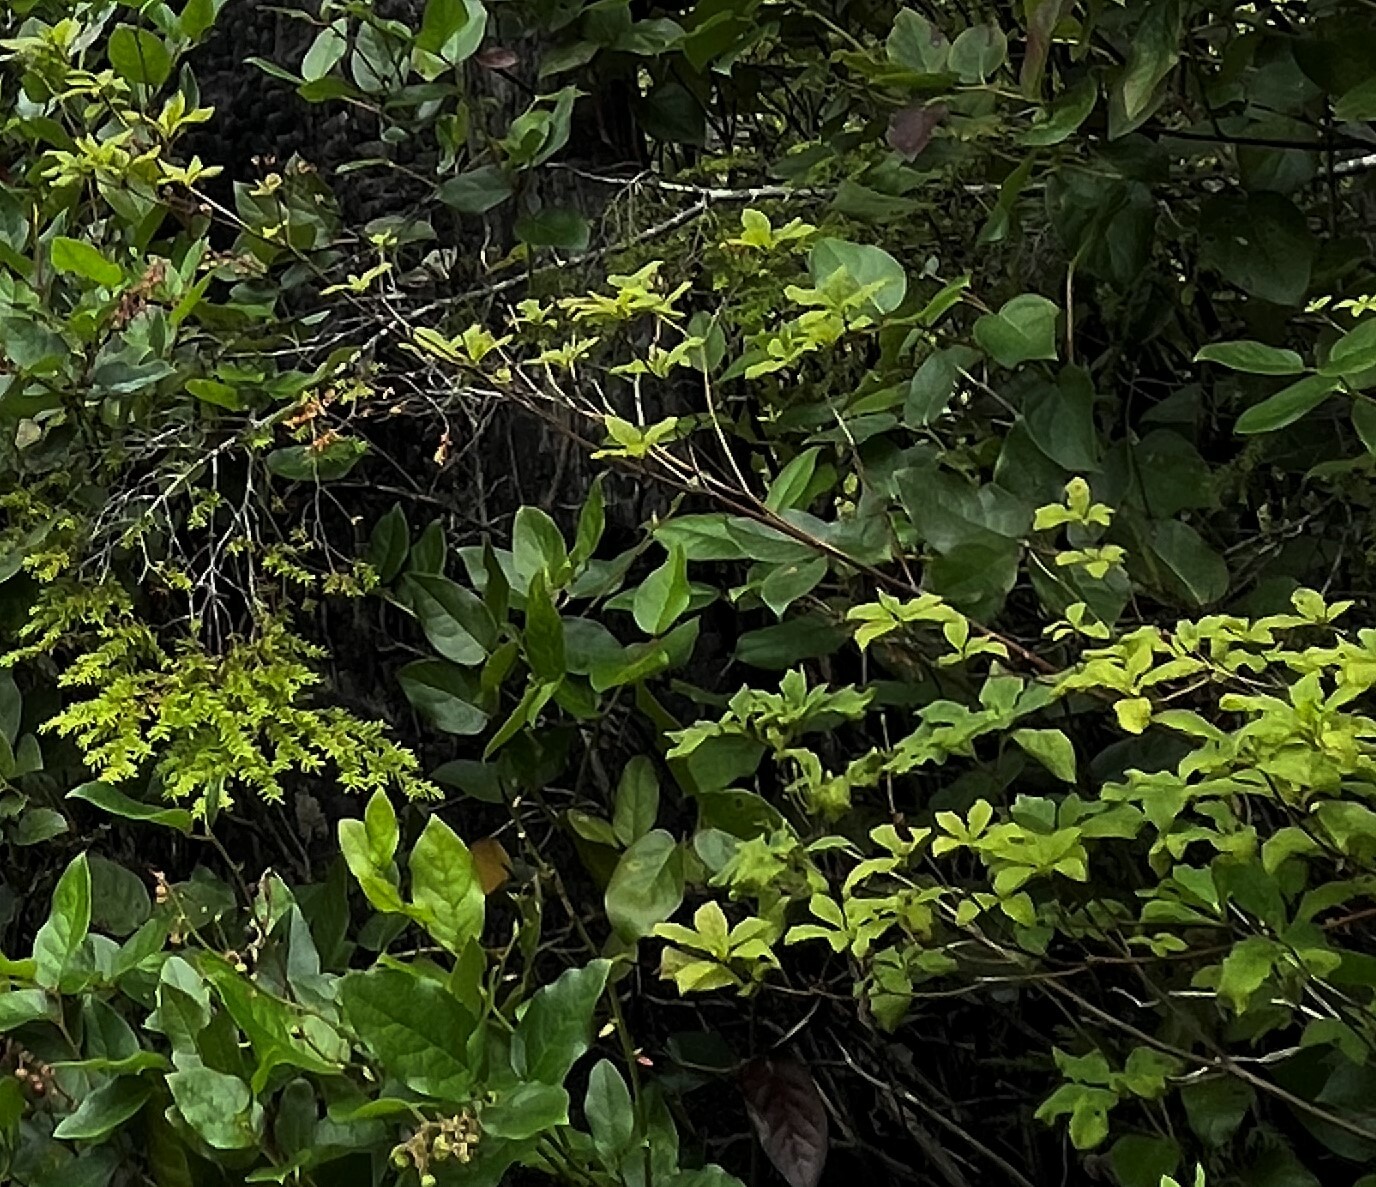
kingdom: Plantae
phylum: Tracheophyta
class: Magnoliopsida
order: Ericales
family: Ericaceae
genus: Rhododendron
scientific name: Rhododendron menziesii
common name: Pacific menziesia
